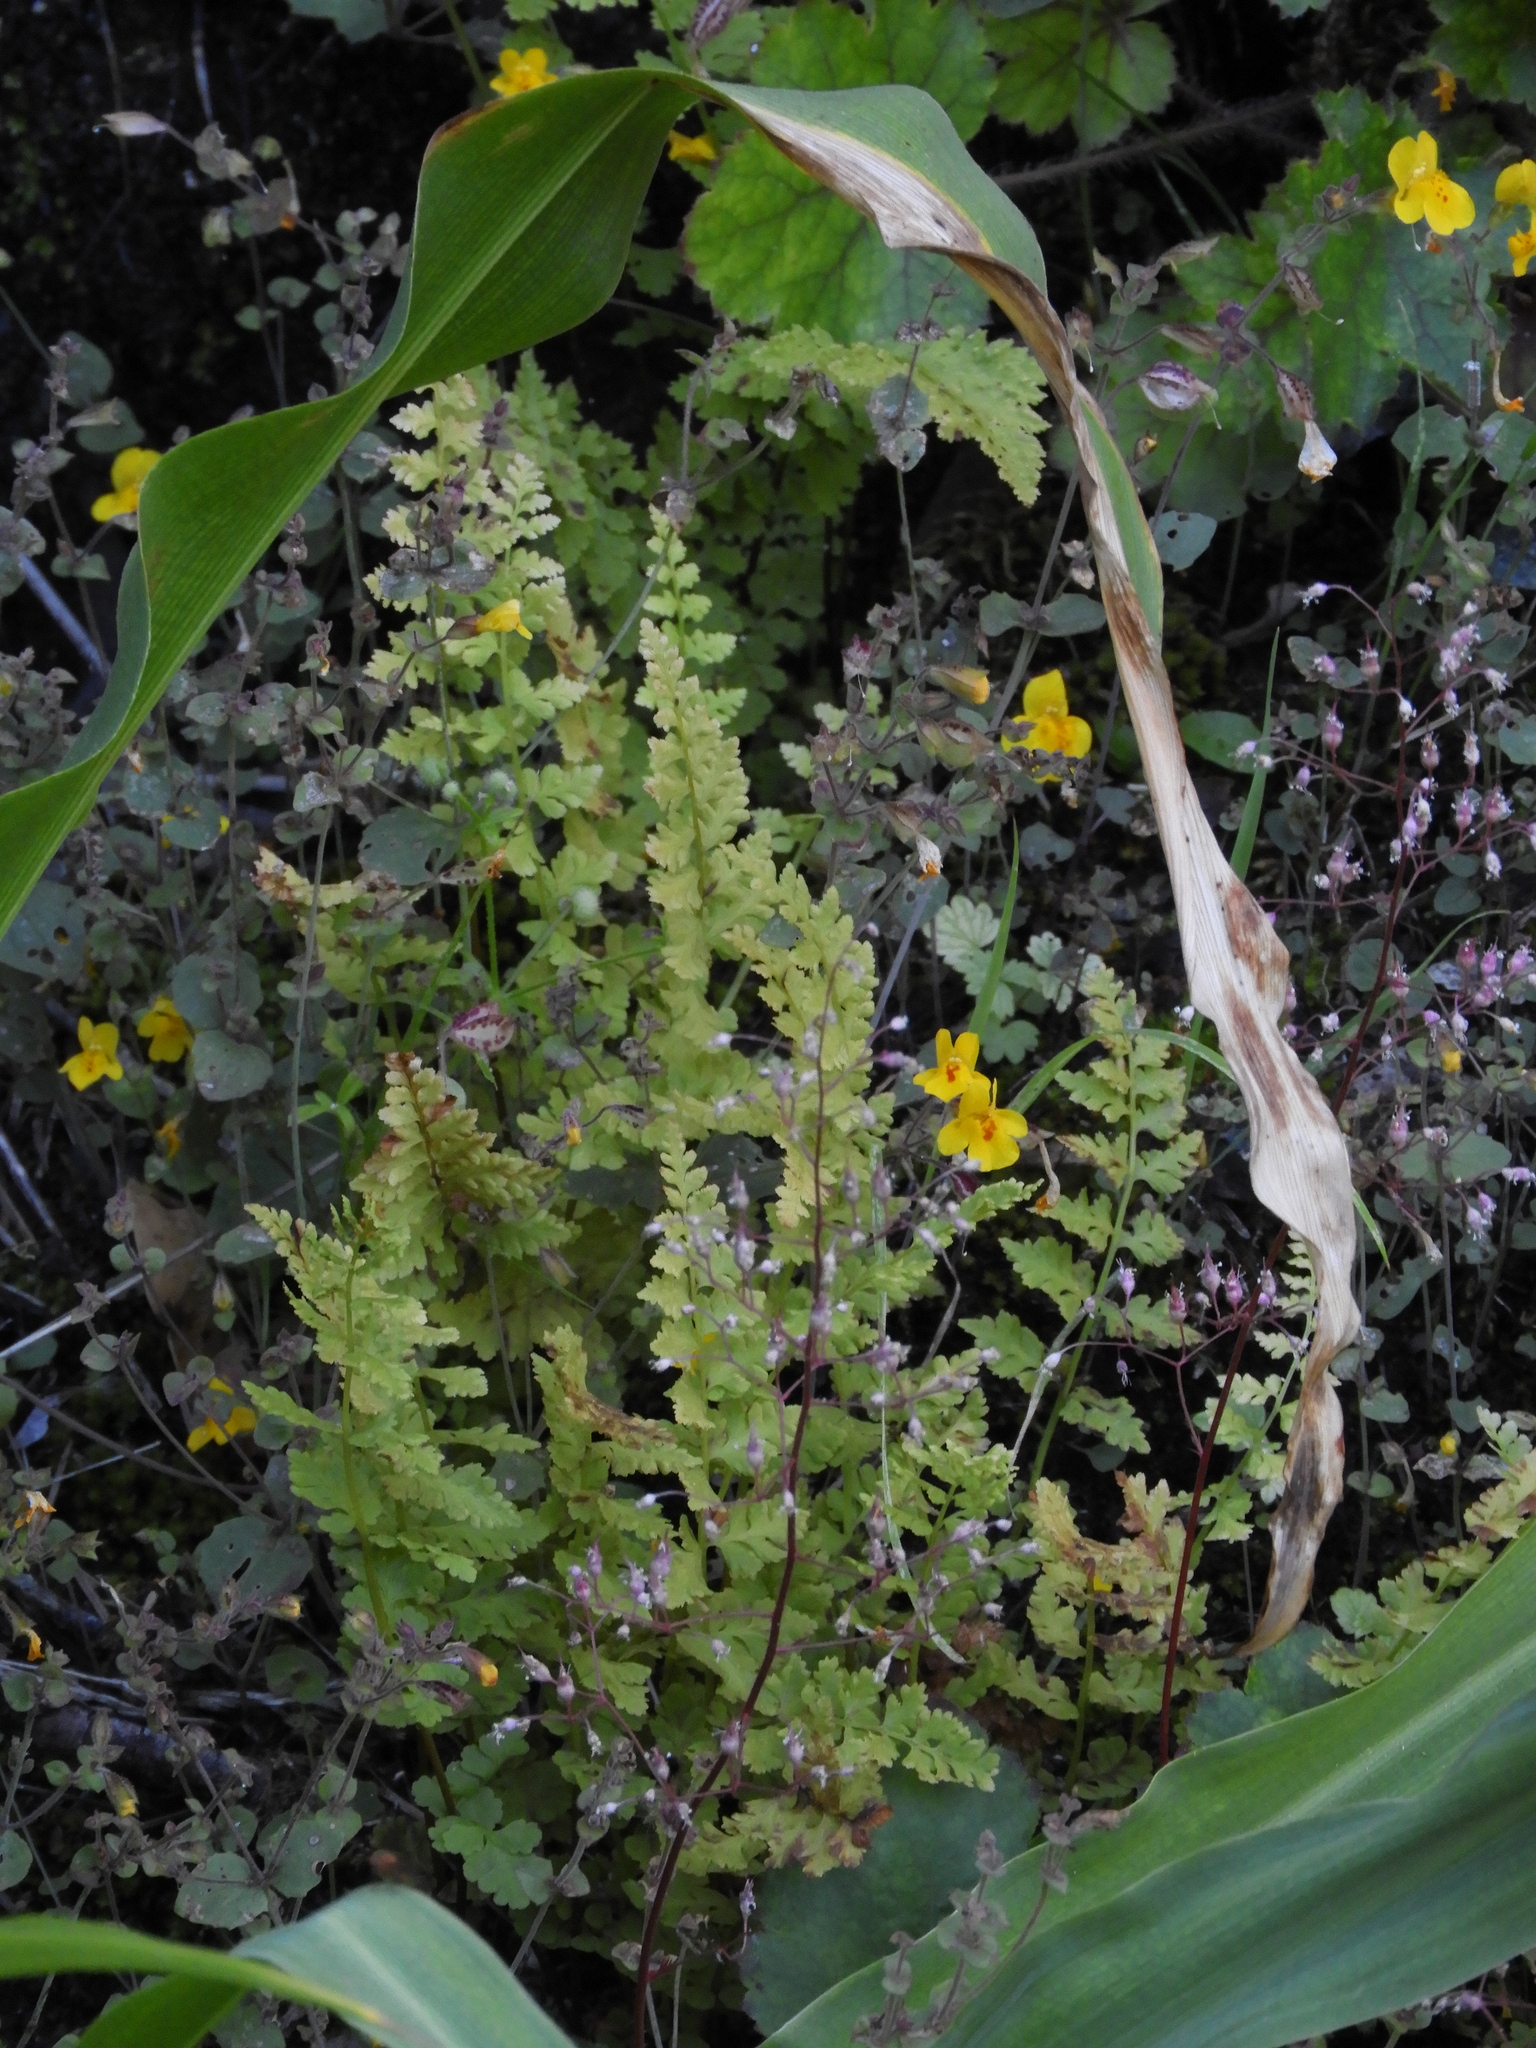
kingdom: Plantae
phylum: Tracheophyta
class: Polypodiopsida
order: Polypodiales
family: Cystopteridaceae
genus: Cystopteris
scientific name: Cystopteris fragilis
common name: Brittle bladder fern
